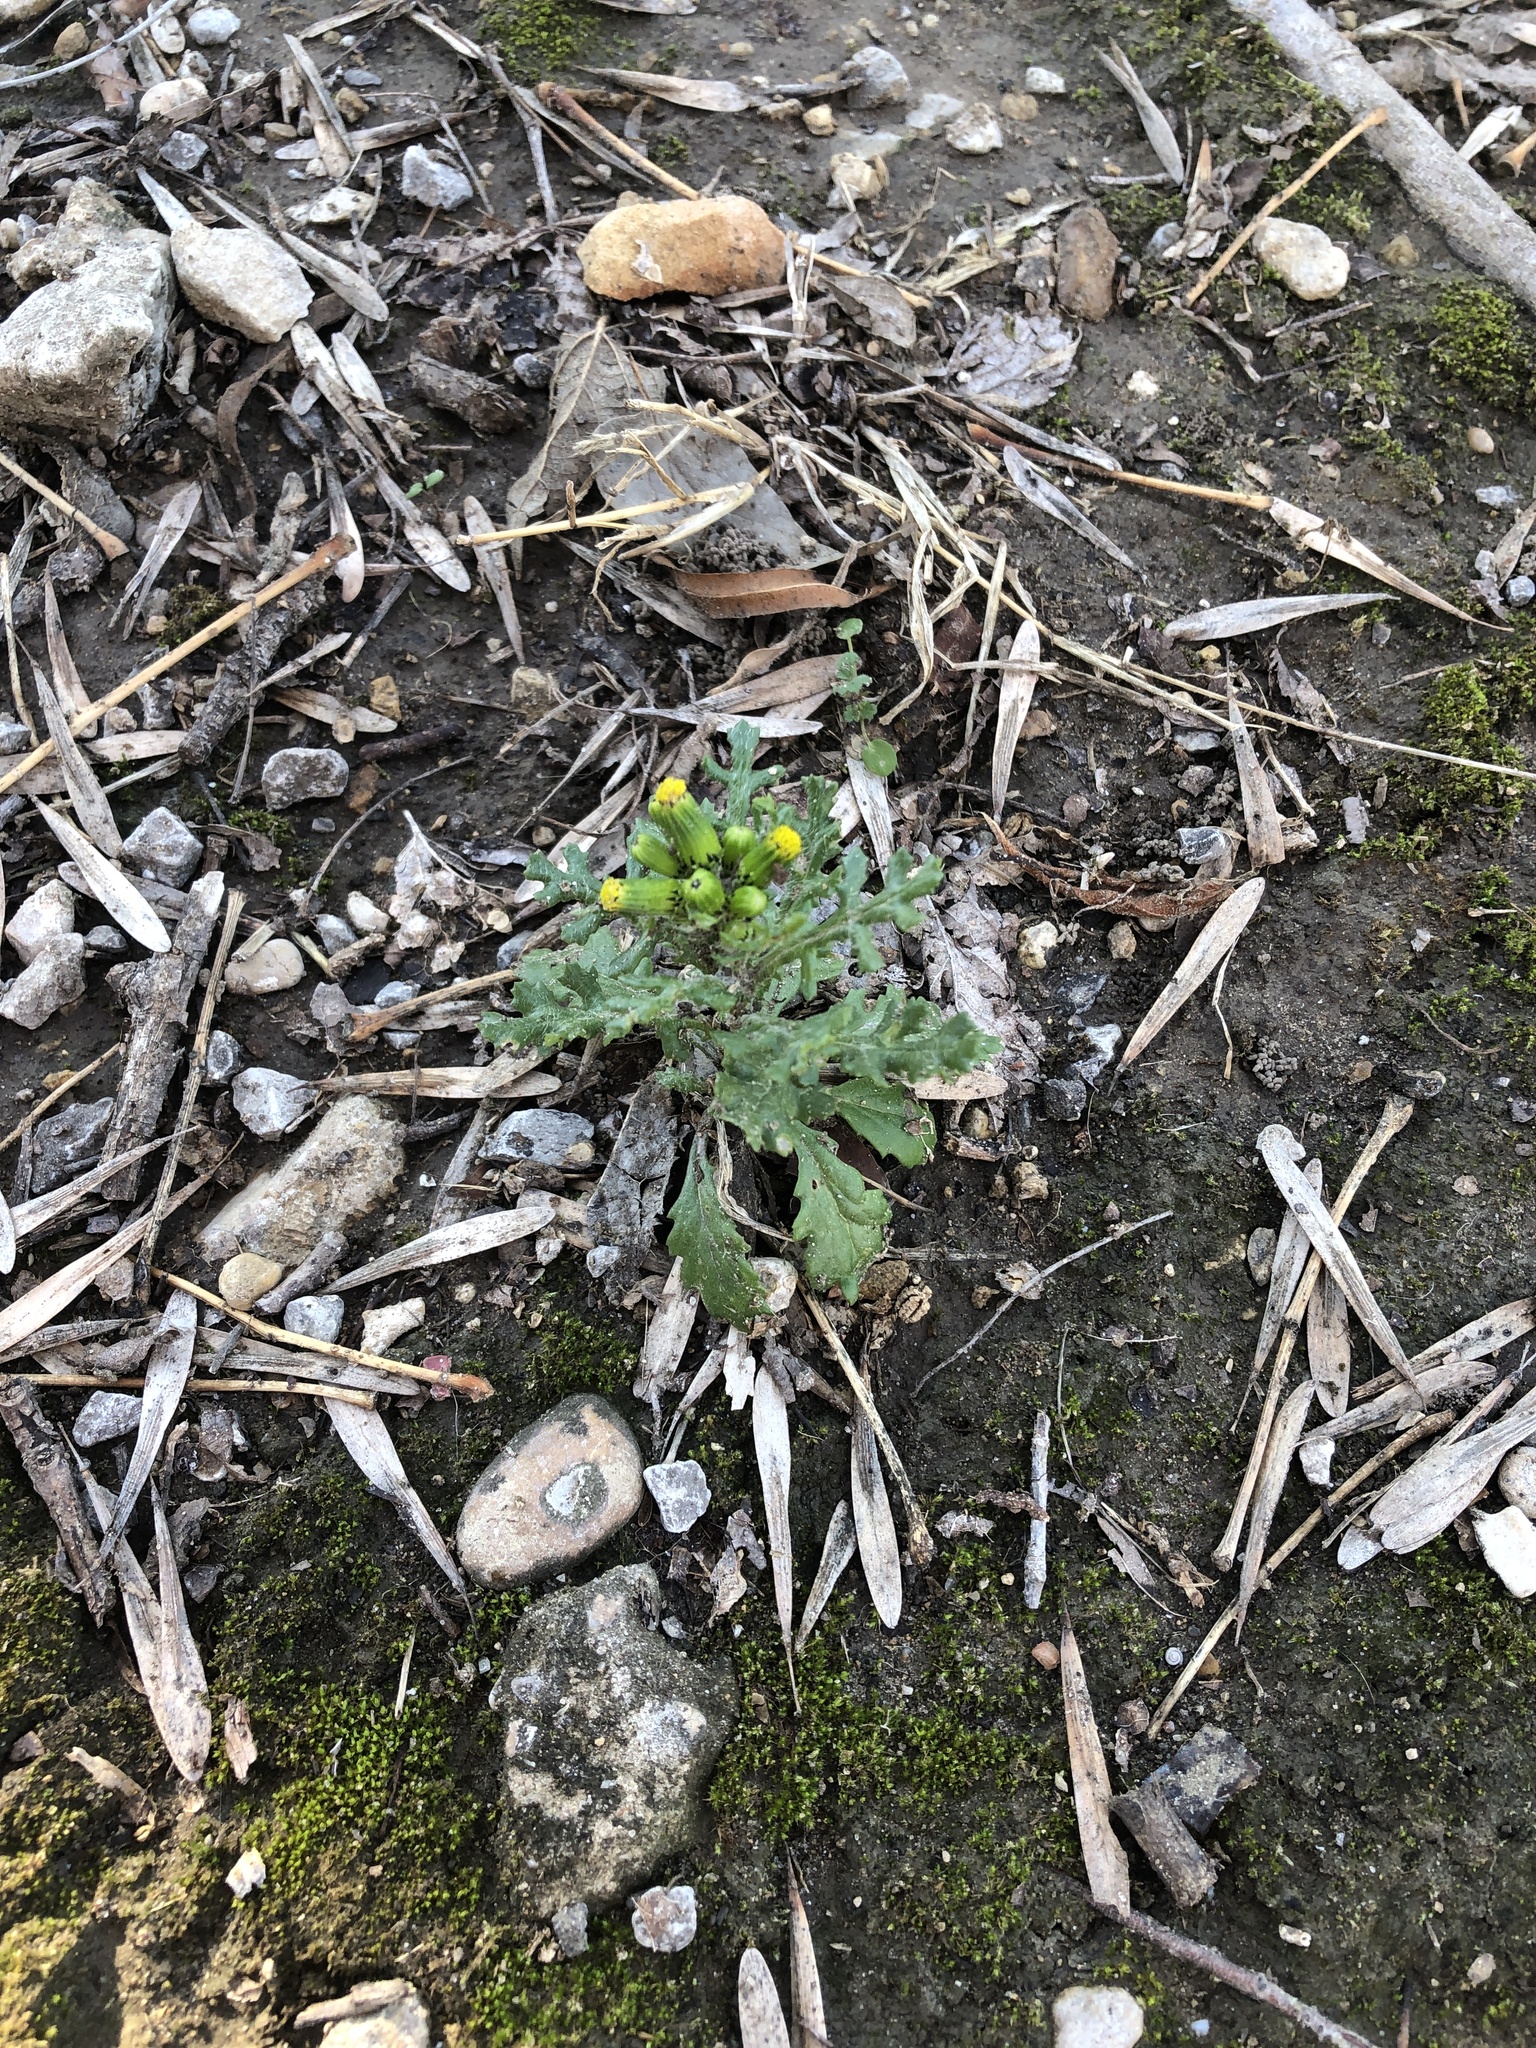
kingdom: Plantae
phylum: Tracheophyta
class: Magnoliopsida
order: Asterales
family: Asteraceae
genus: Senecio
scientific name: Senecio vulgaris
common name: Old-man-in-the-spring
